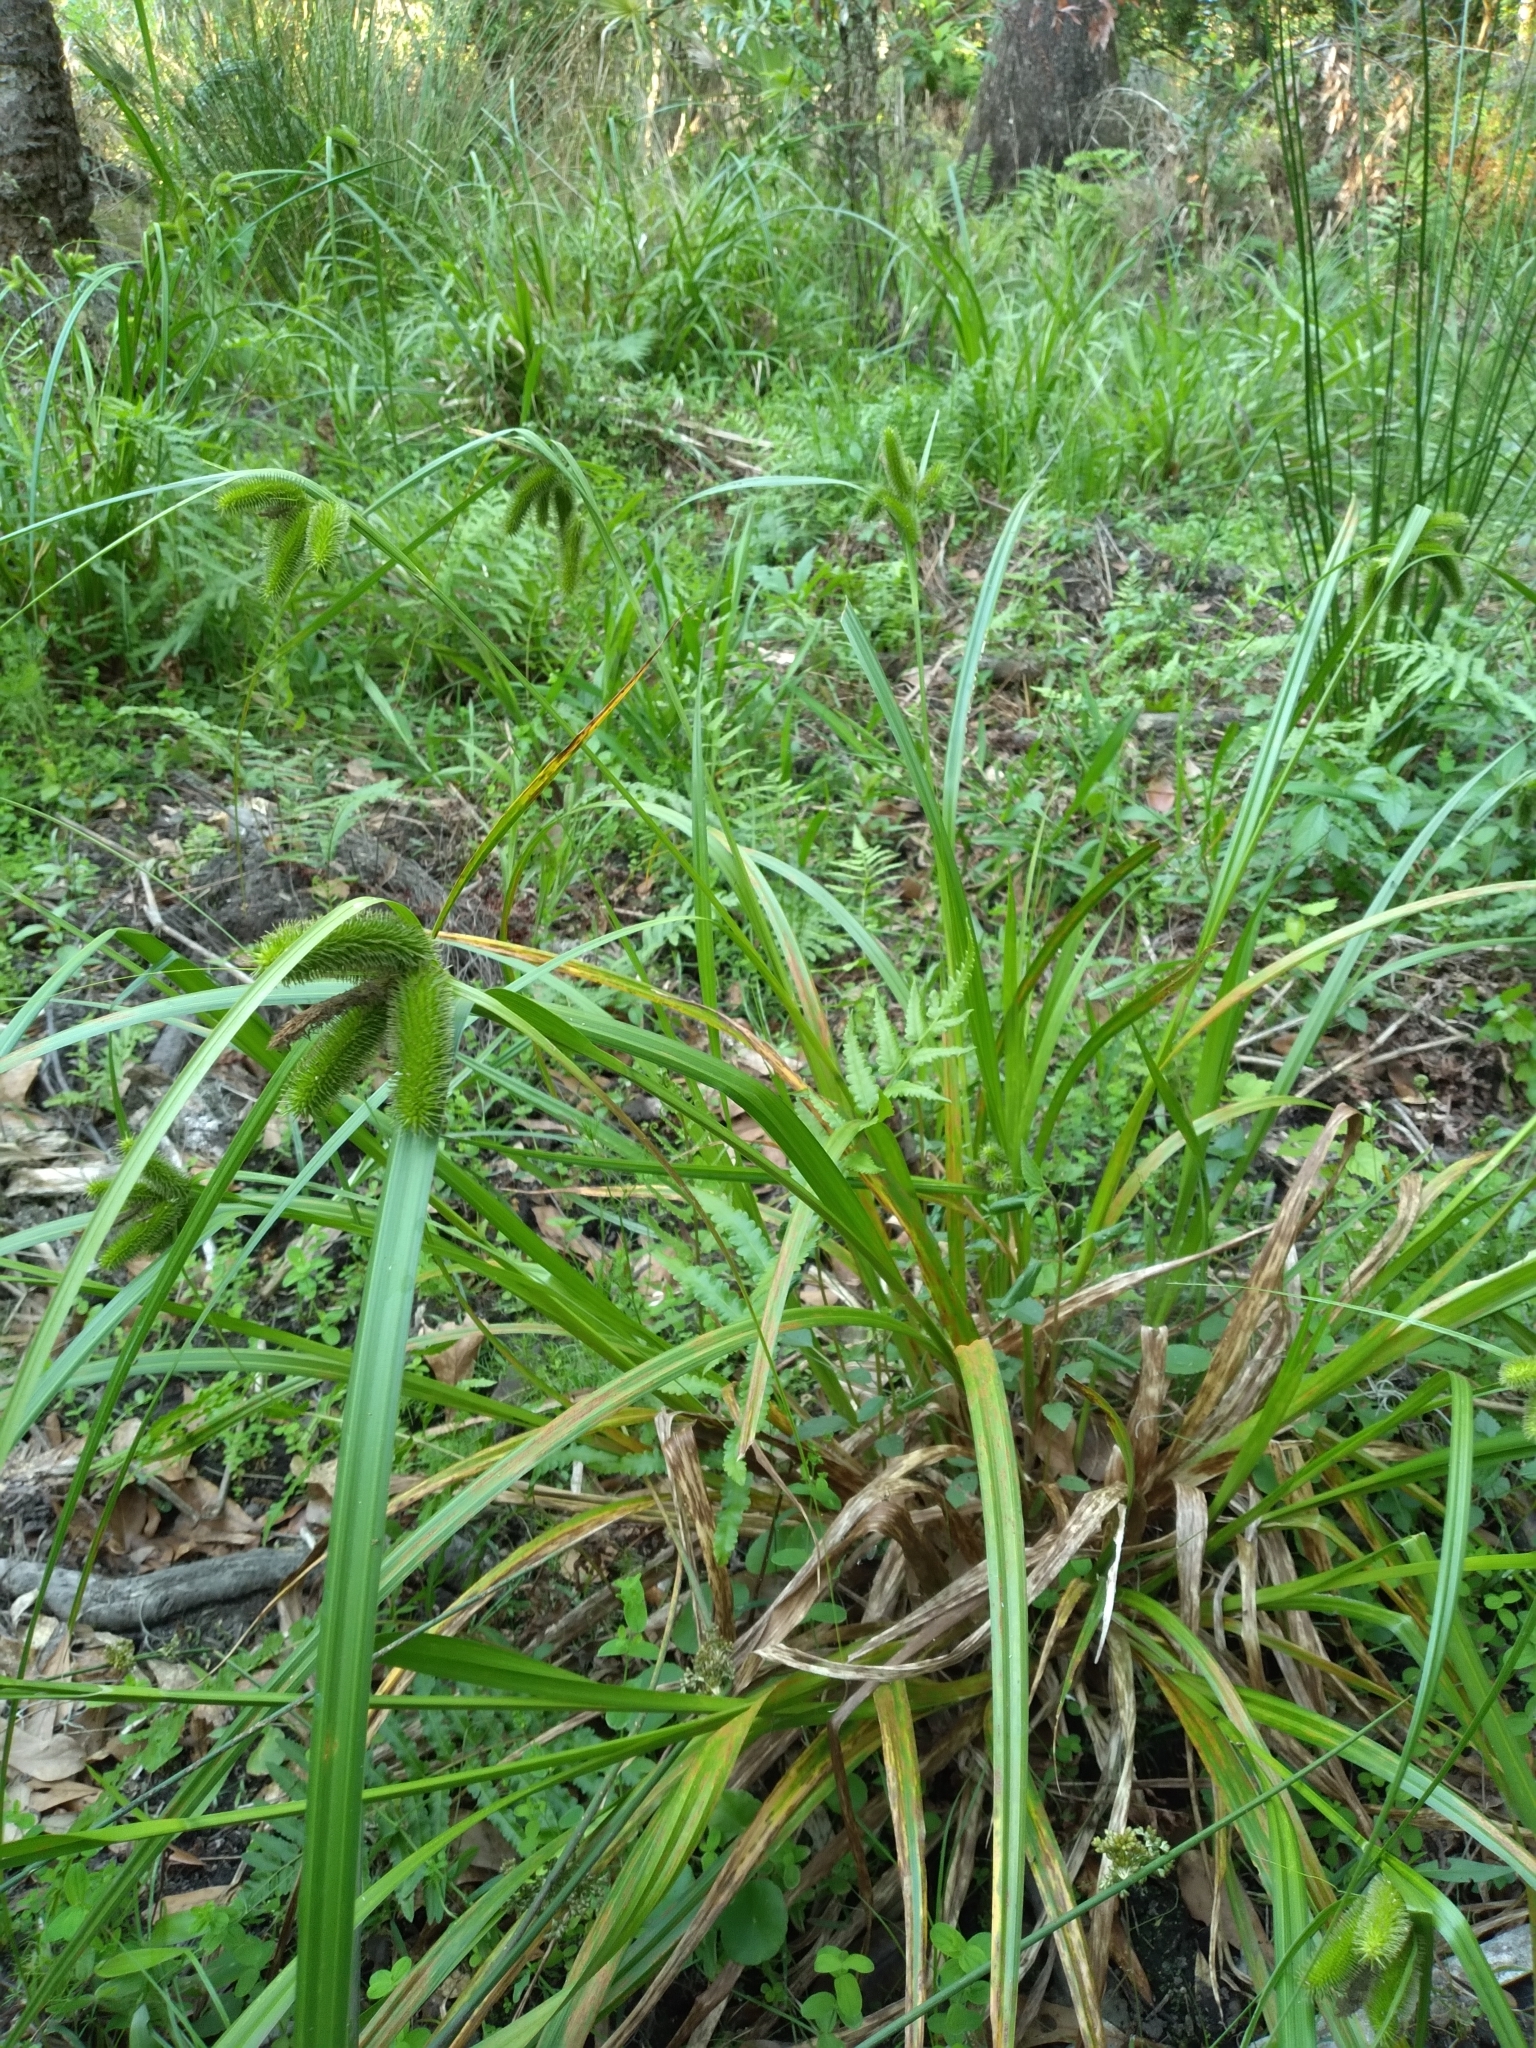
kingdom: Plantae
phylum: Tracheophyta
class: Liliopsida
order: Poales
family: Cyperaceae
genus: Carex
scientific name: Carex comosa
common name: Bristly sedge
